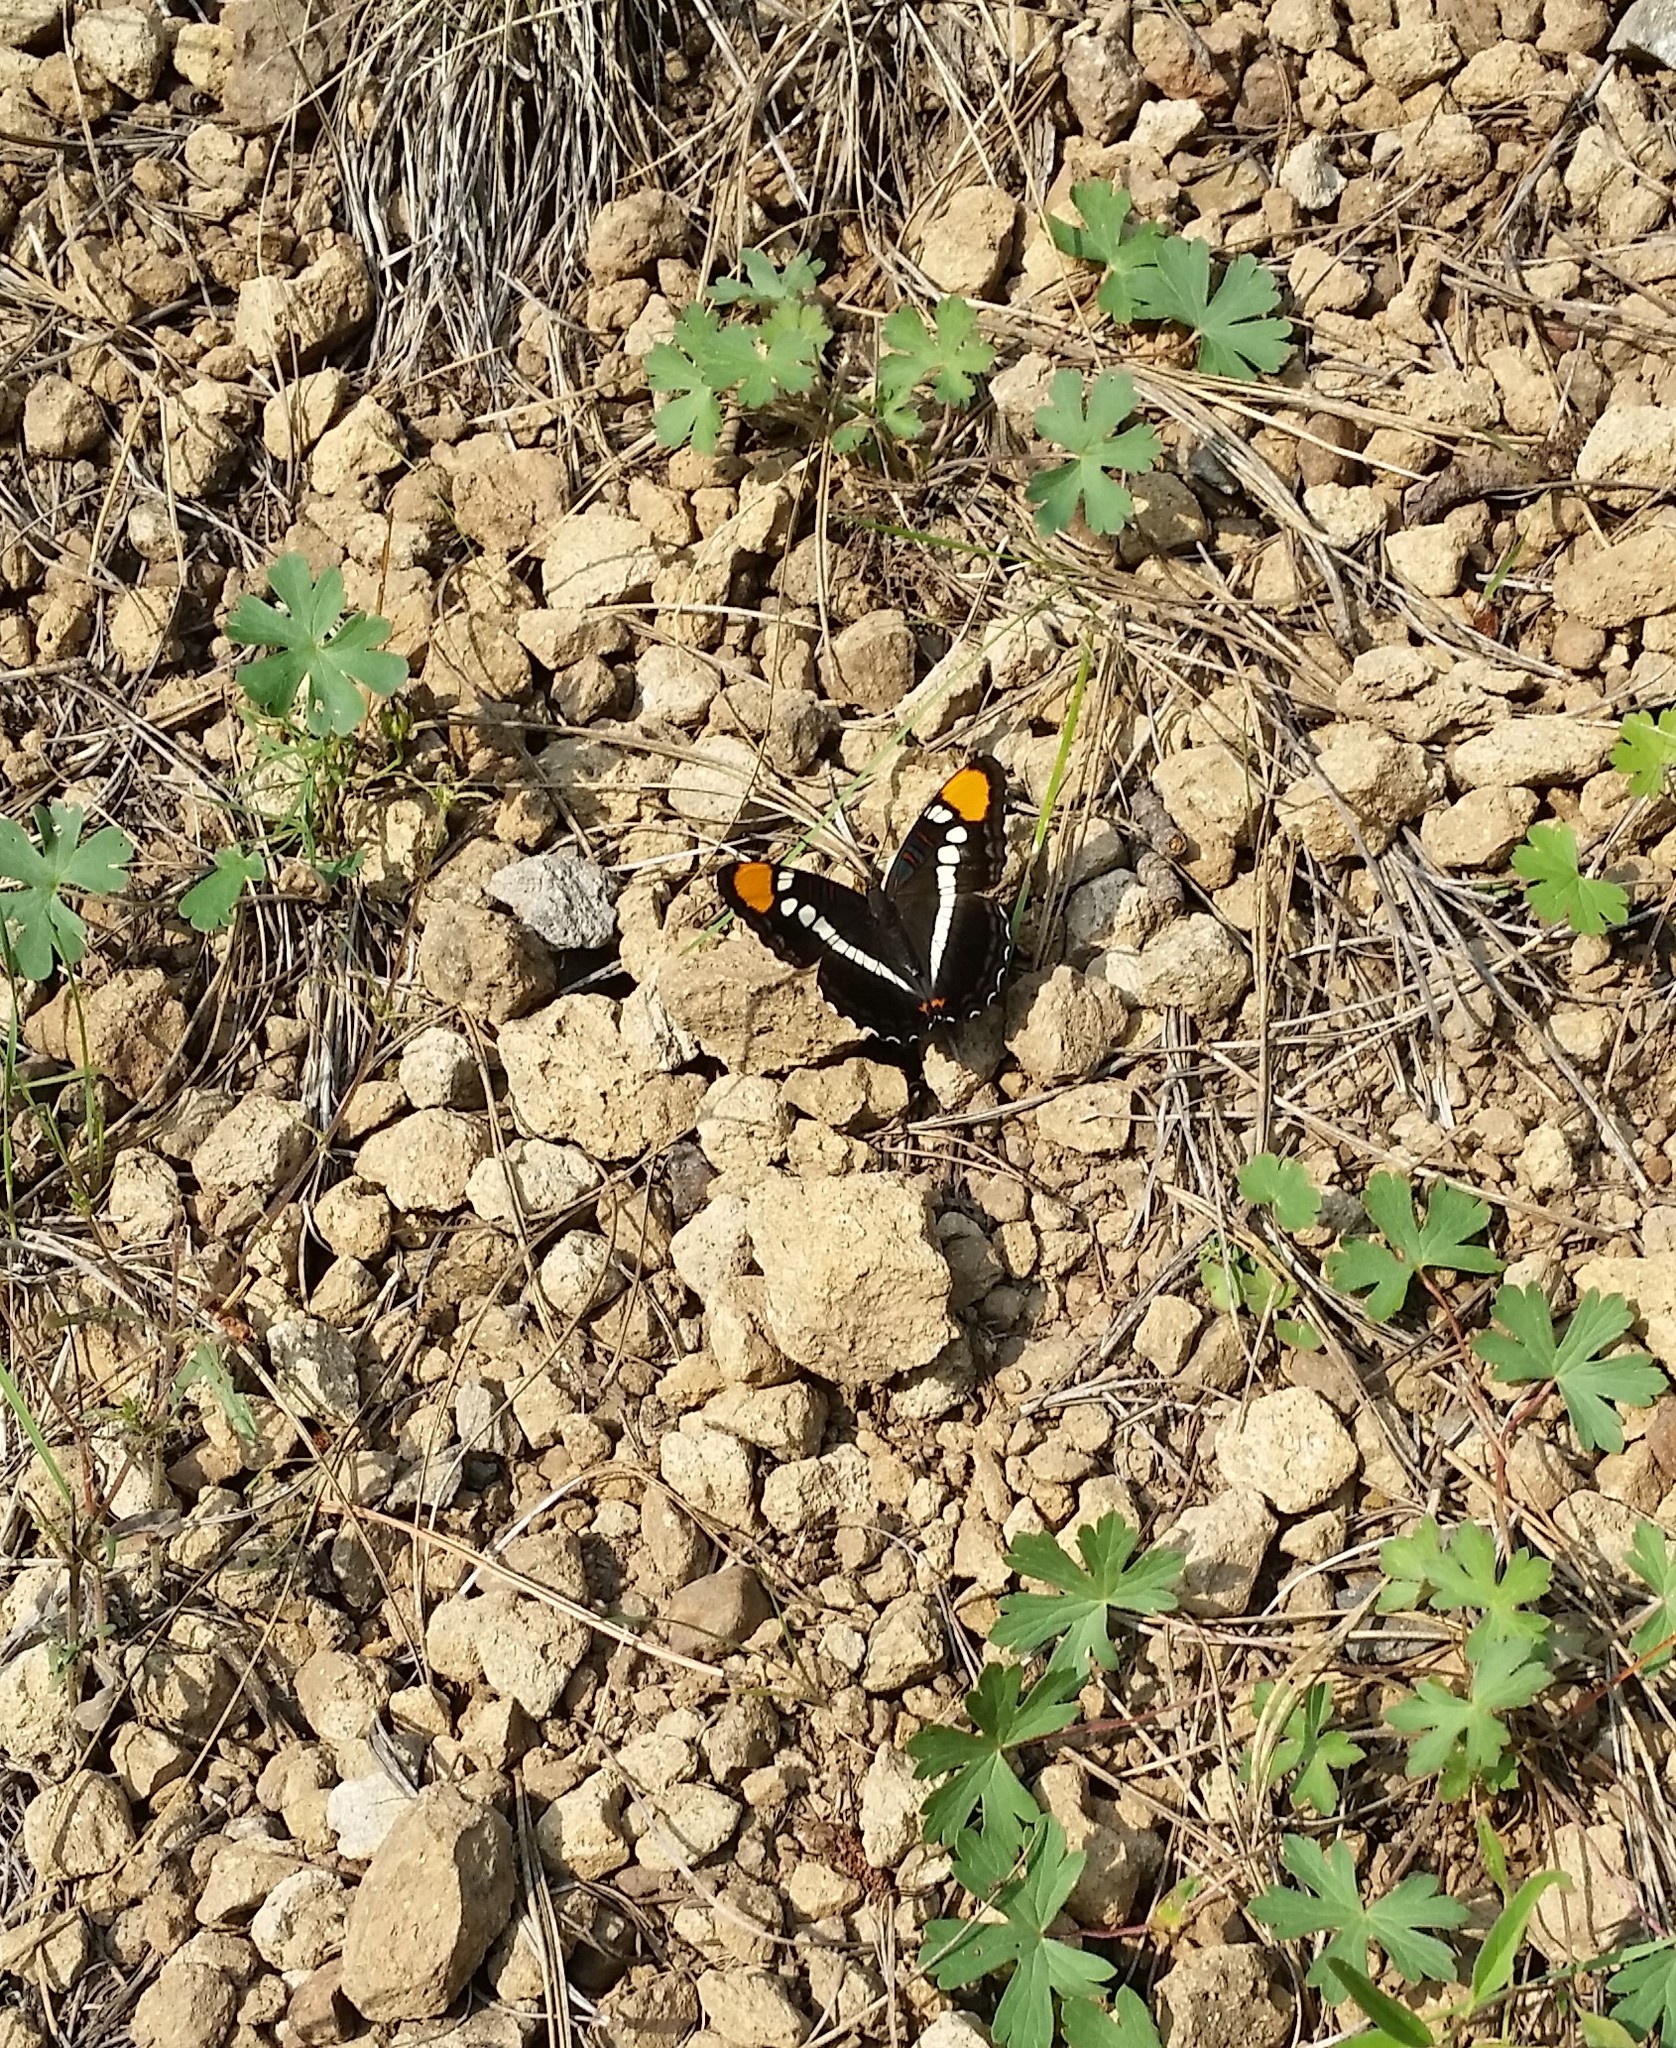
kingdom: Animalia
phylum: Arthropoda
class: Insecta
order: Lepidoptera
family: Nymphalidae
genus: Limenitis
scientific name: Limenitis bredowii
